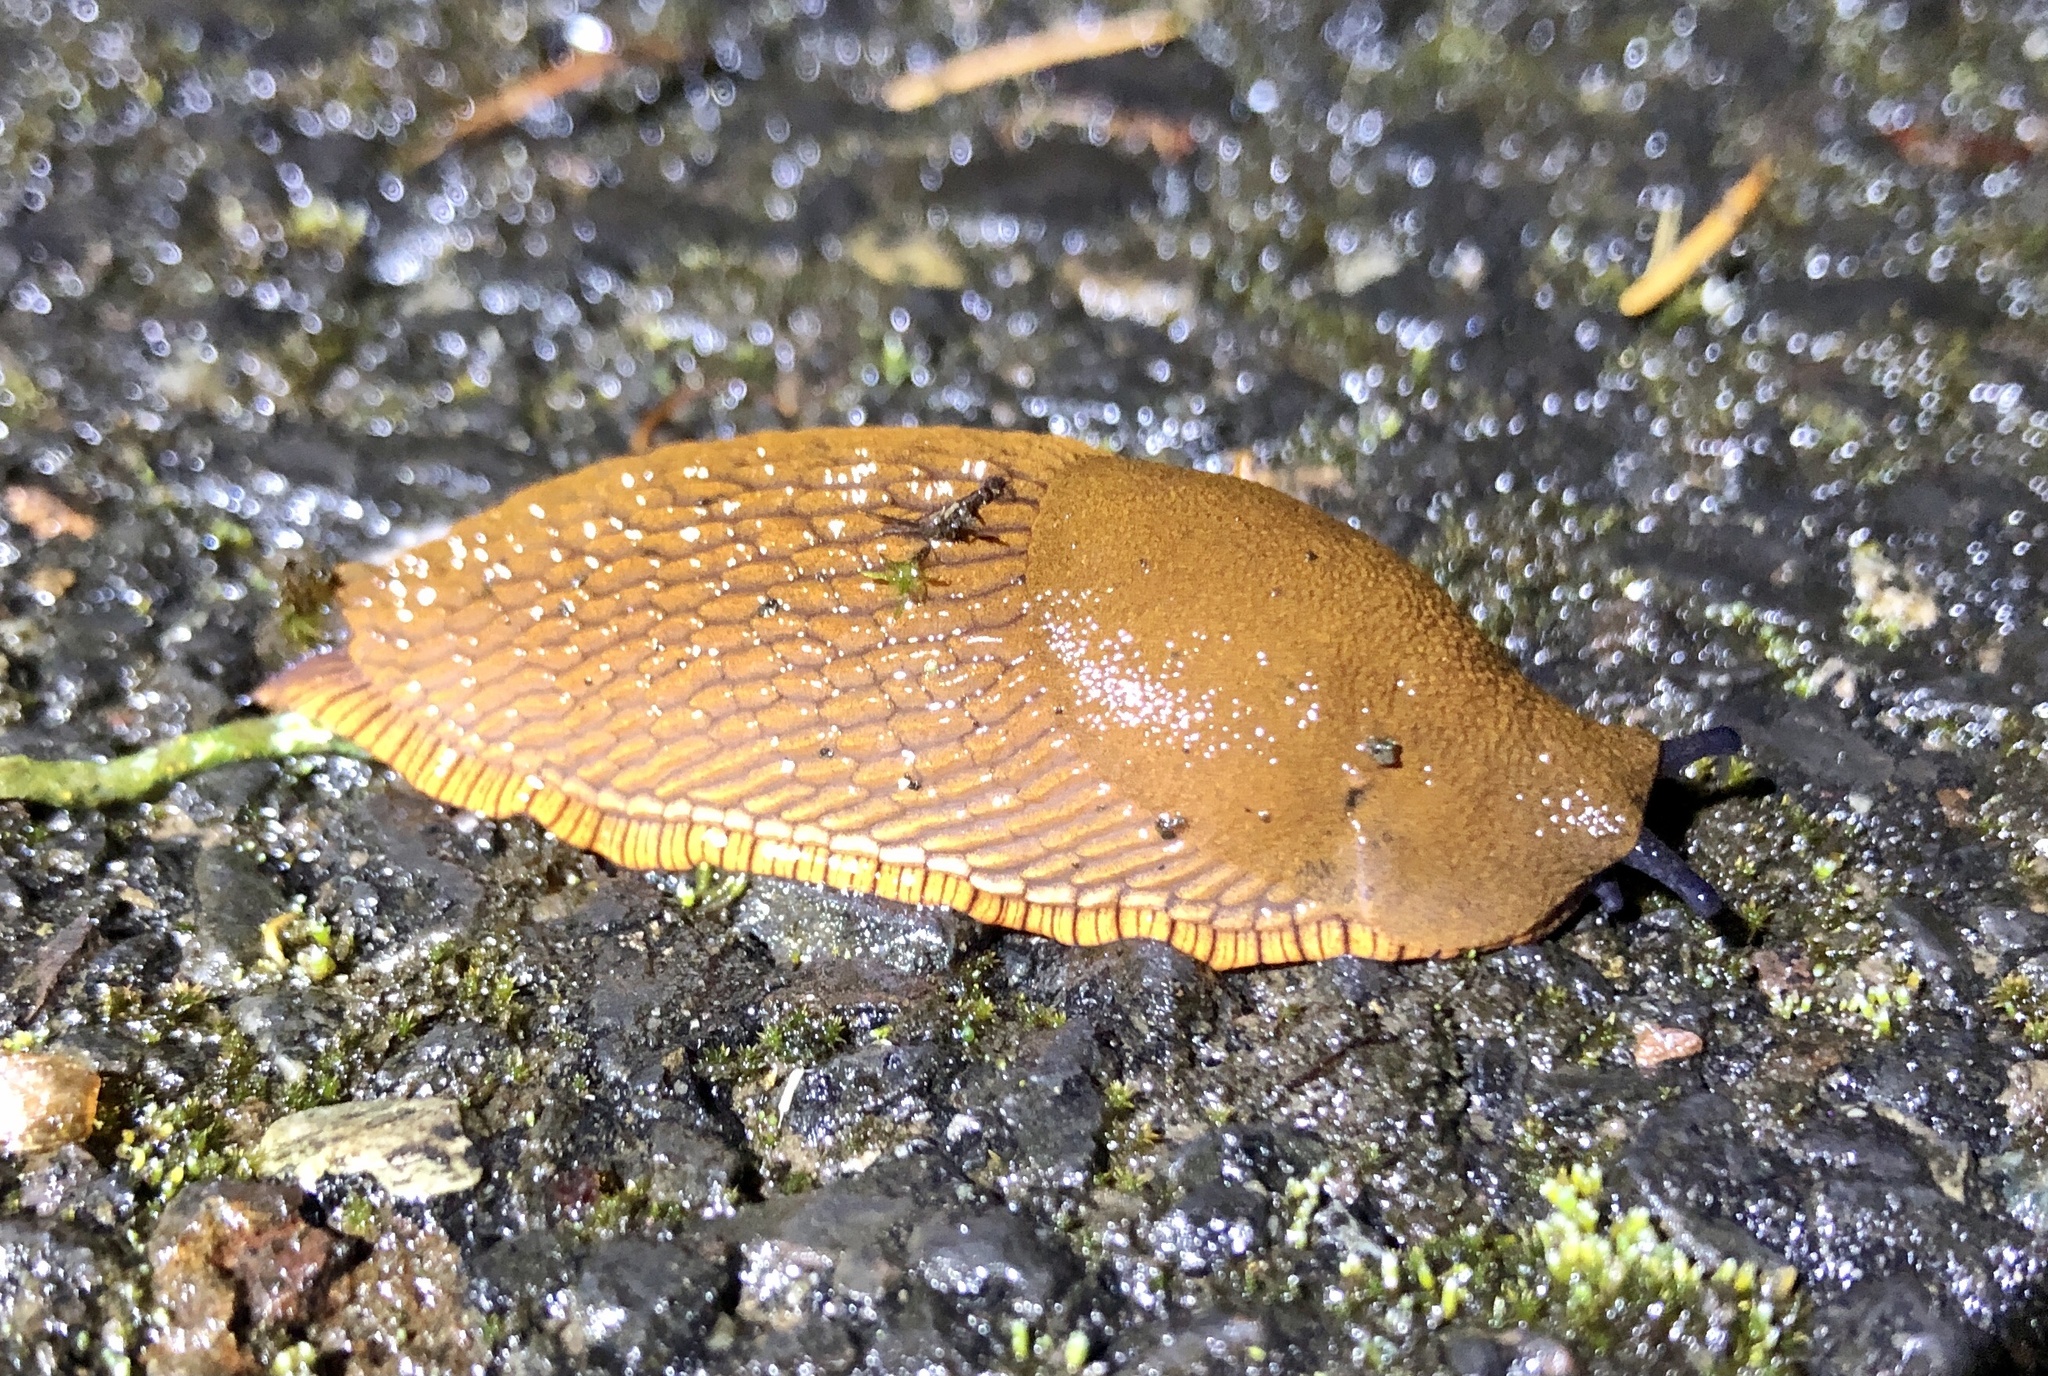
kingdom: Animalia
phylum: Mollusca
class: Gastropoda
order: Stylommatophora
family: Arionidae
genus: Arion
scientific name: Arion rufus
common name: Chocolate arion
